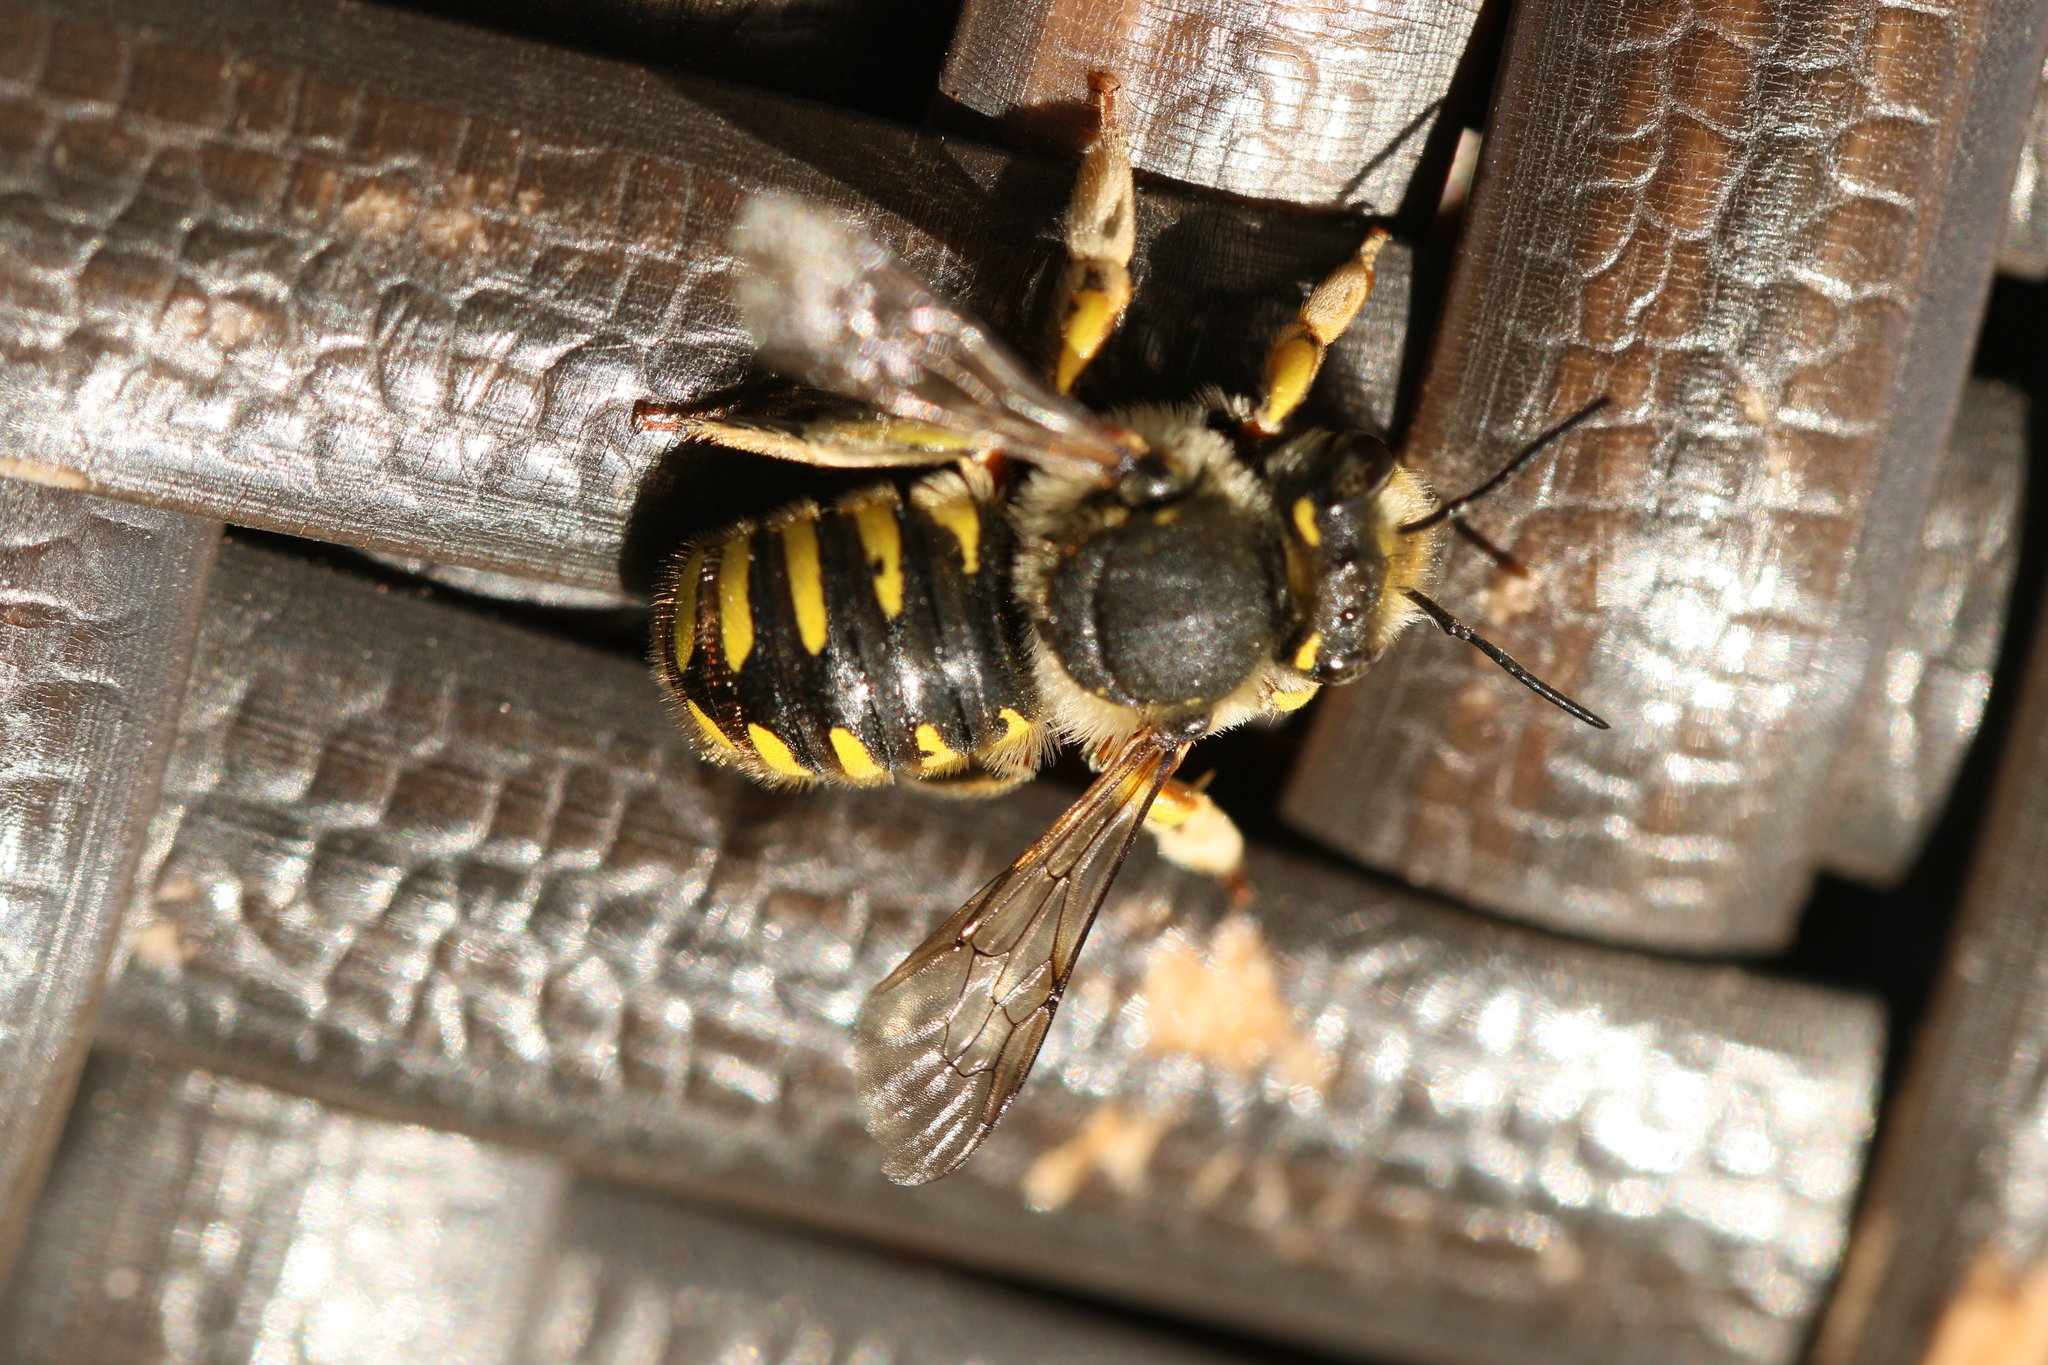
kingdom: Animalia
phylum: Arthropoda
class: Insecta
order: Hymenoptera
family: Megachilidae
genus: Anthidium
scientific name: Anthidium manicatum
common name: Wool carder bee
